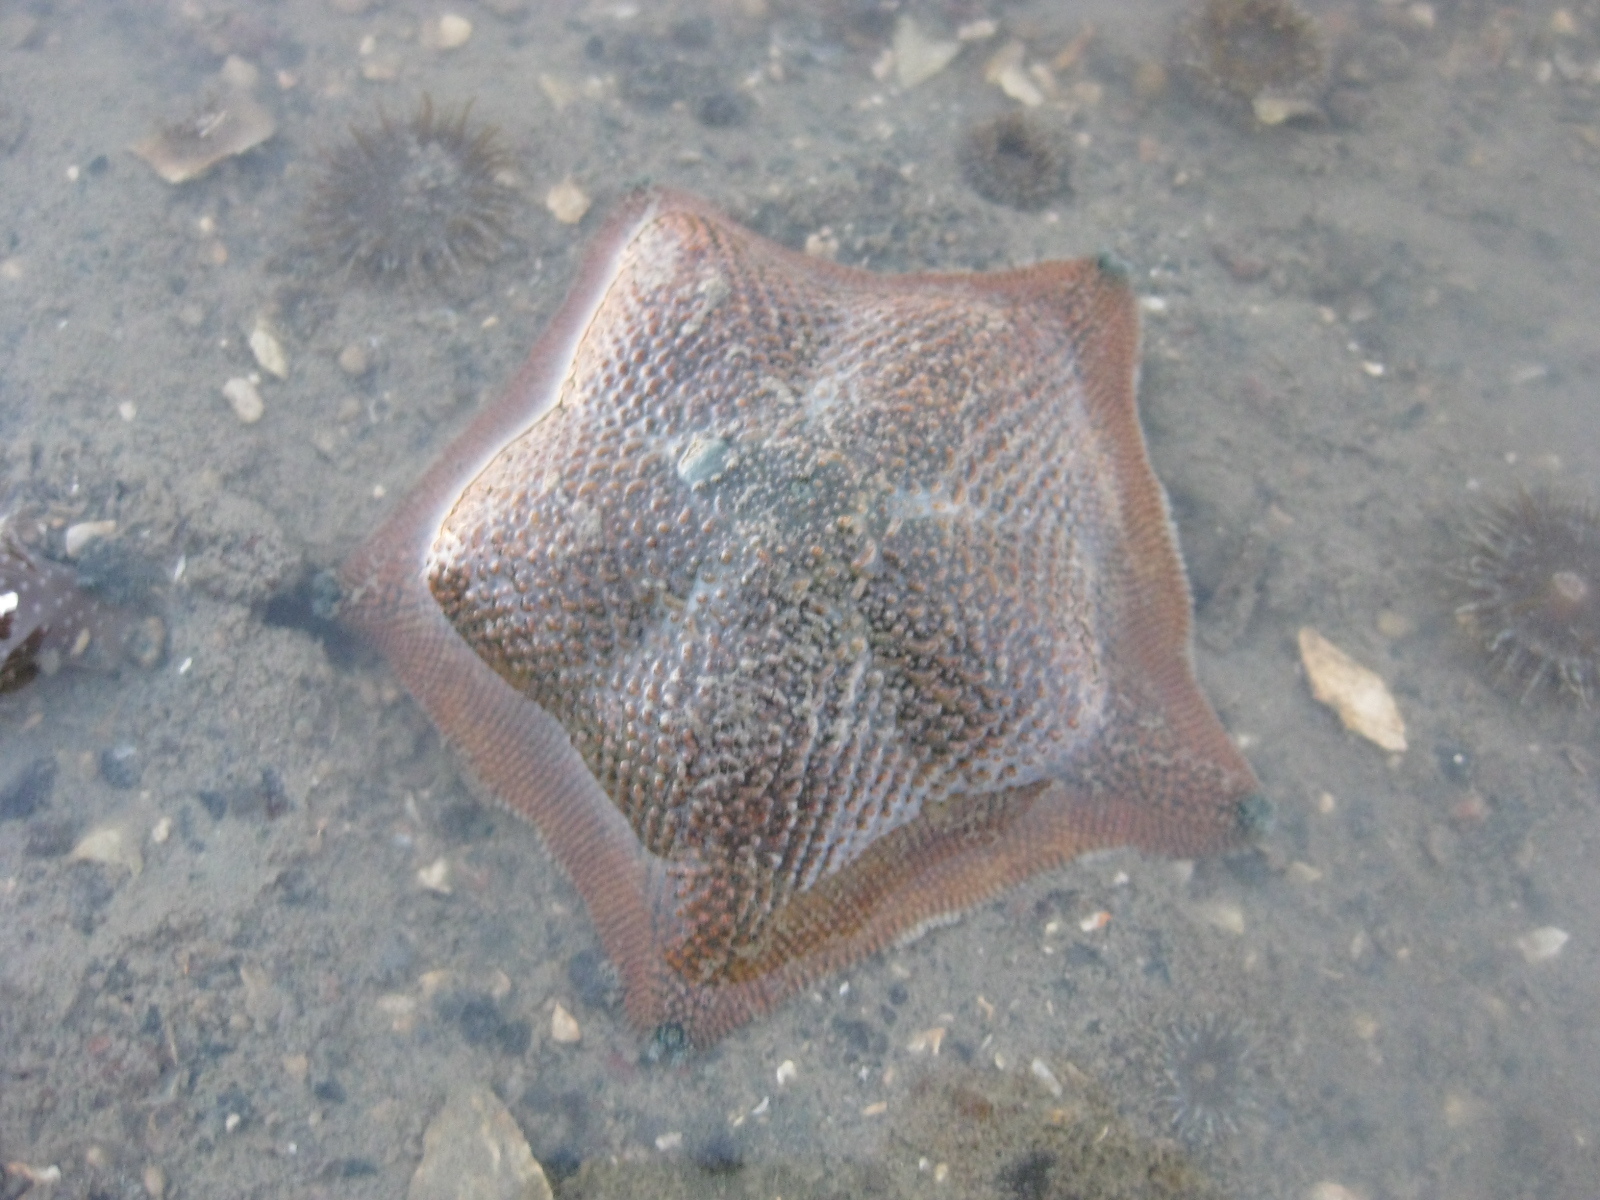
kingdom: Animalia
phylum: Echinodermata
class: Asteroidea
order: Valvatida
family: Asterinidae
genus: Patiriella
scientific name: Patiriella regularis
